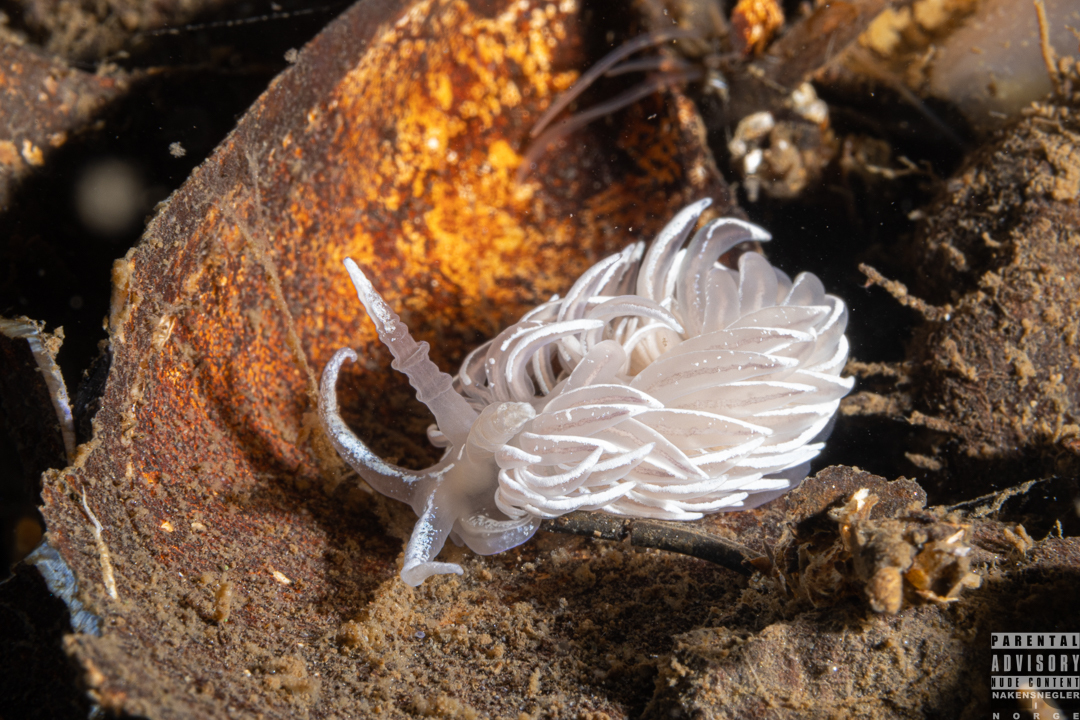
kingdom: Animalia
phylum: Mollusca
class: Gastropoda
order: Nudibranchia
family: Facelinidae
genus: Favorinus
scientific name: Favorinus blianus
